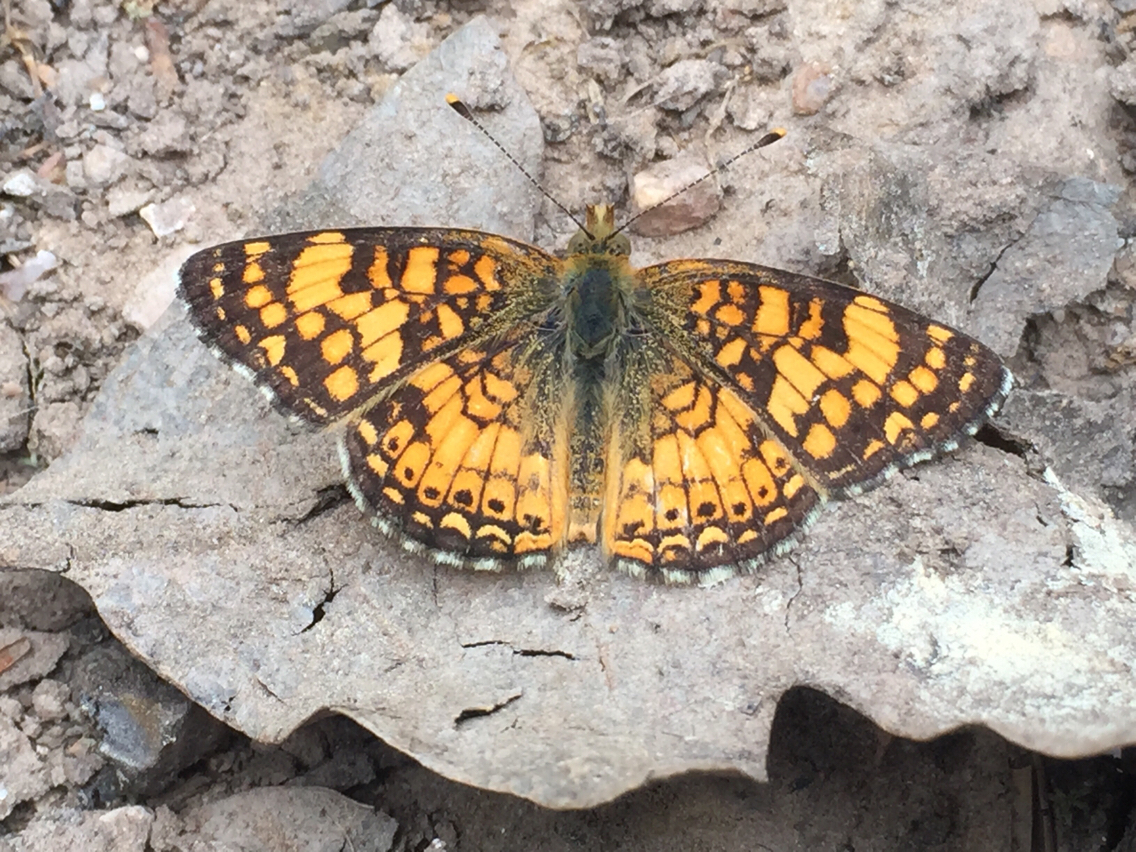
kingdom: Animalia
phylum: Arthropoda
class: Insecta
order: Lepidoptera
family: Nymphalidae
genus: Eresia
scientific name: Eresia aveyrona
